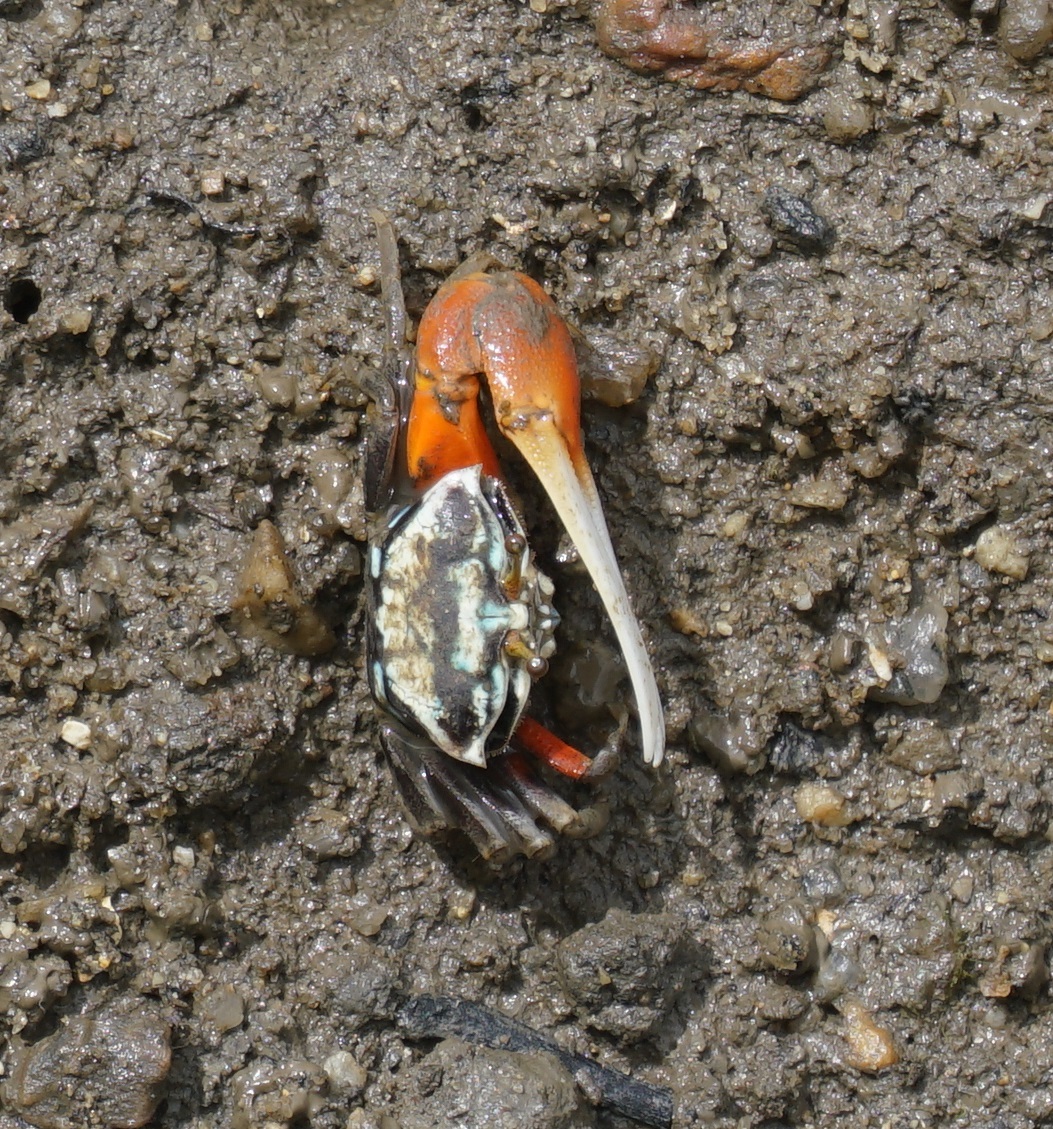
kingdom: Animalia
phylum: Arthropoda
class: Malacostraca
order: Decapoda
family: Ocypodidae
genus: Tubuca
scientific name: Tubuca signata
